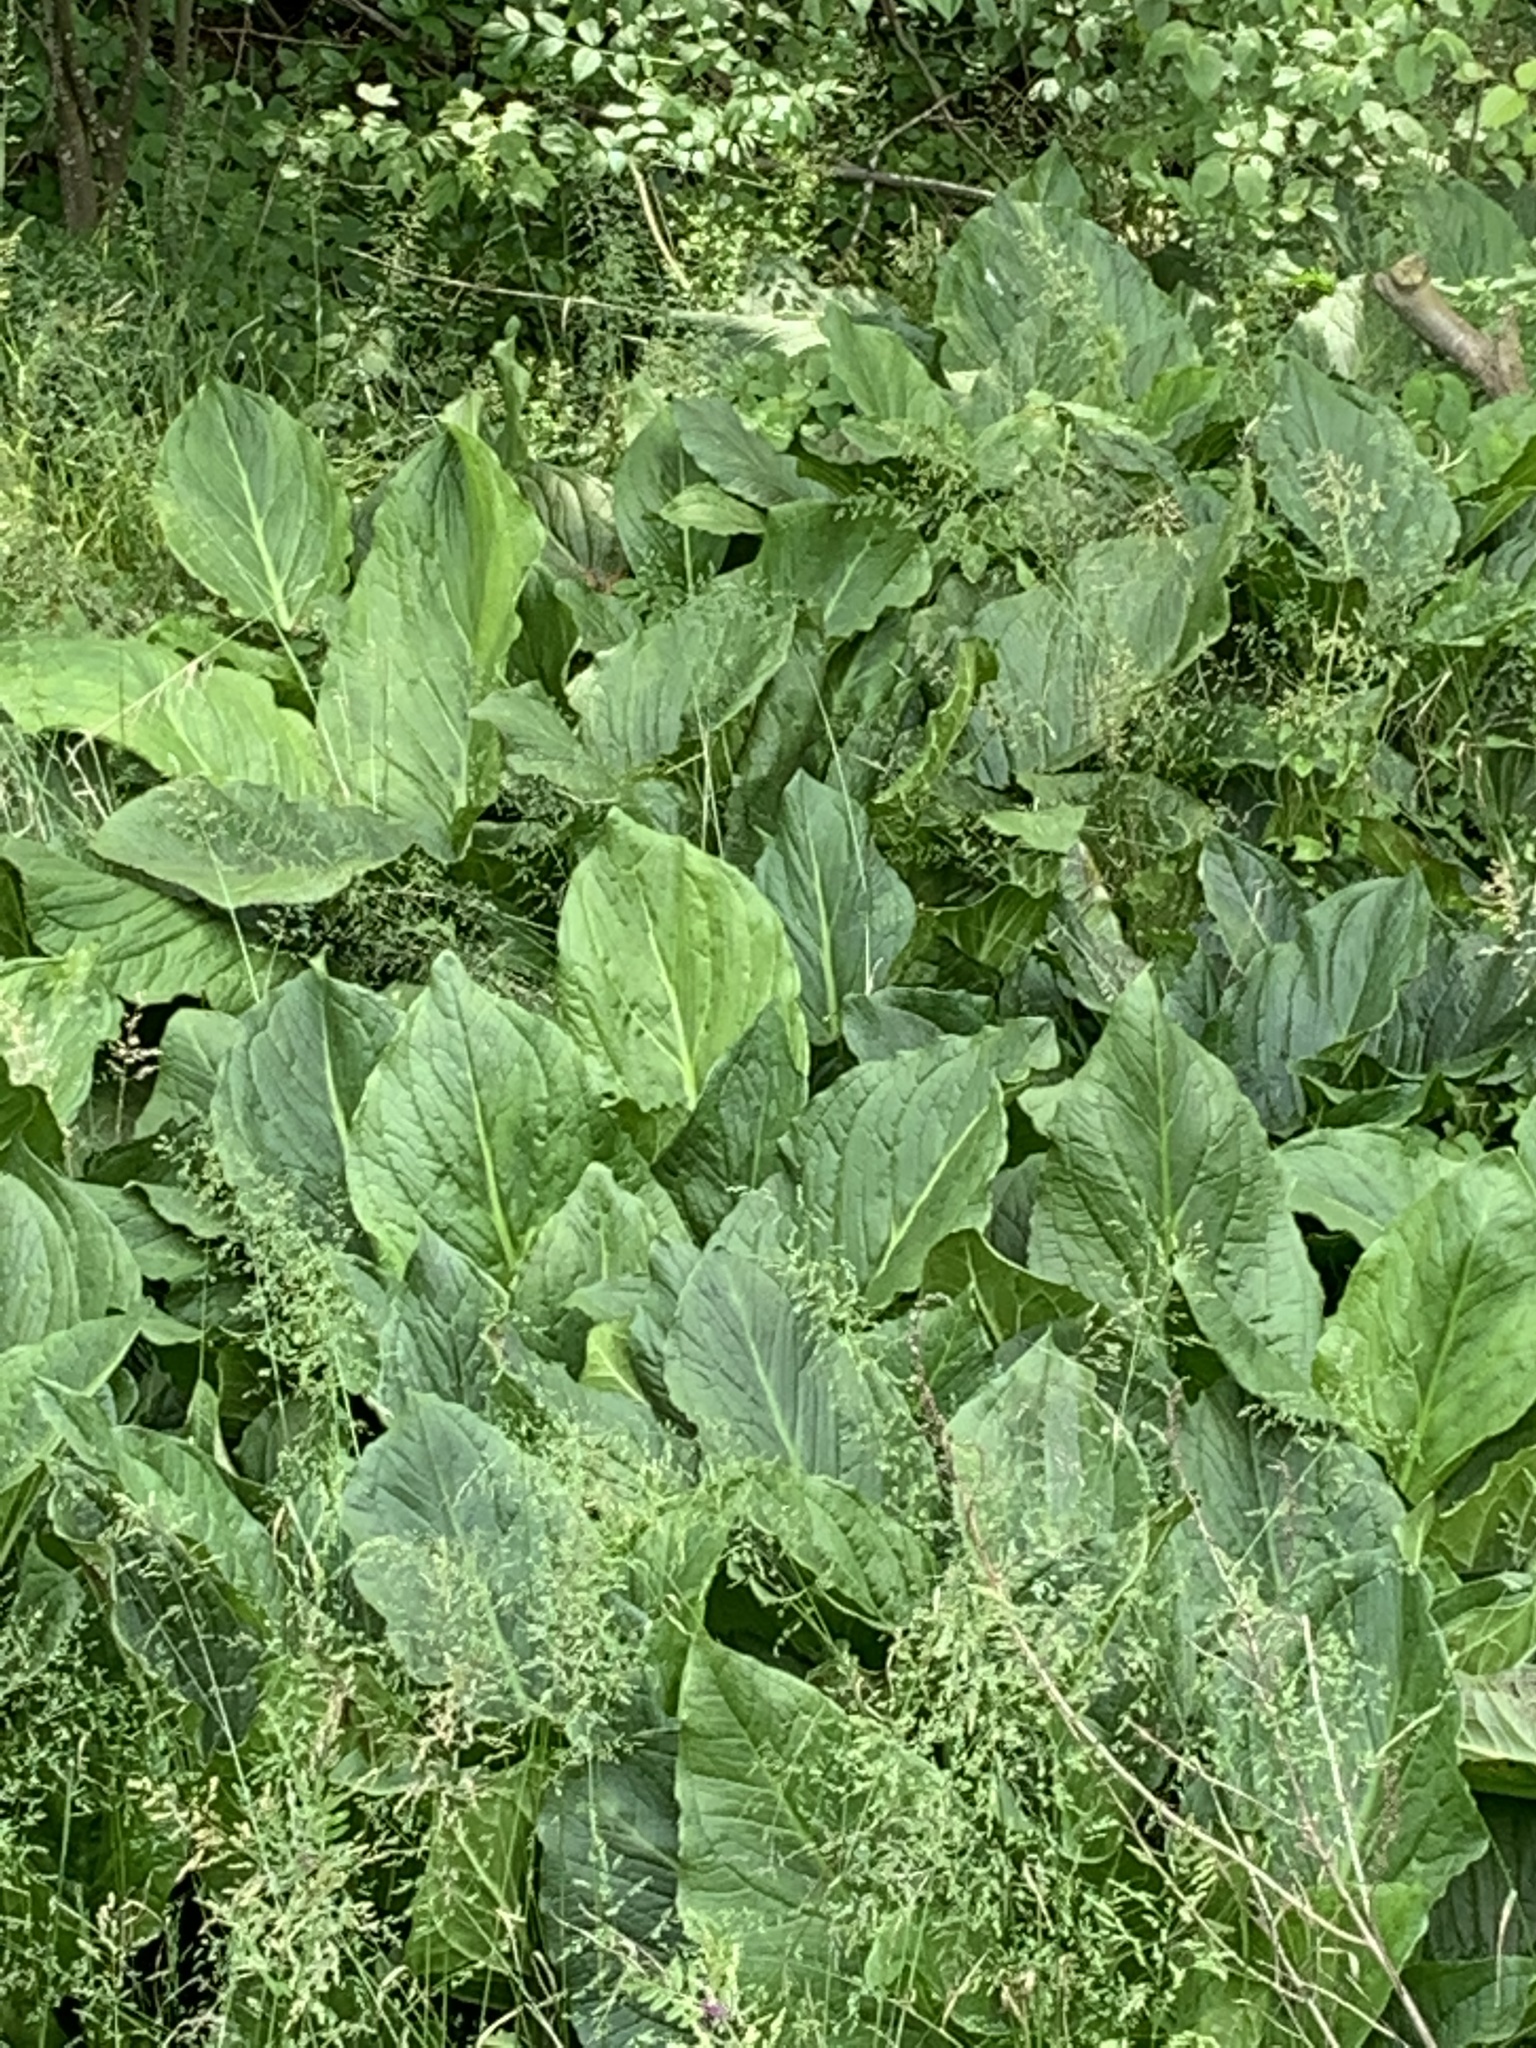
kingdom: Plantae
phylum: Tracheophyta
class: Liliopsida
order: Alismatales
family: Araceae
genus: Symplocarpus
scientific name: Symplocarpus foetidus
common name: Eastern skunk cabbage
